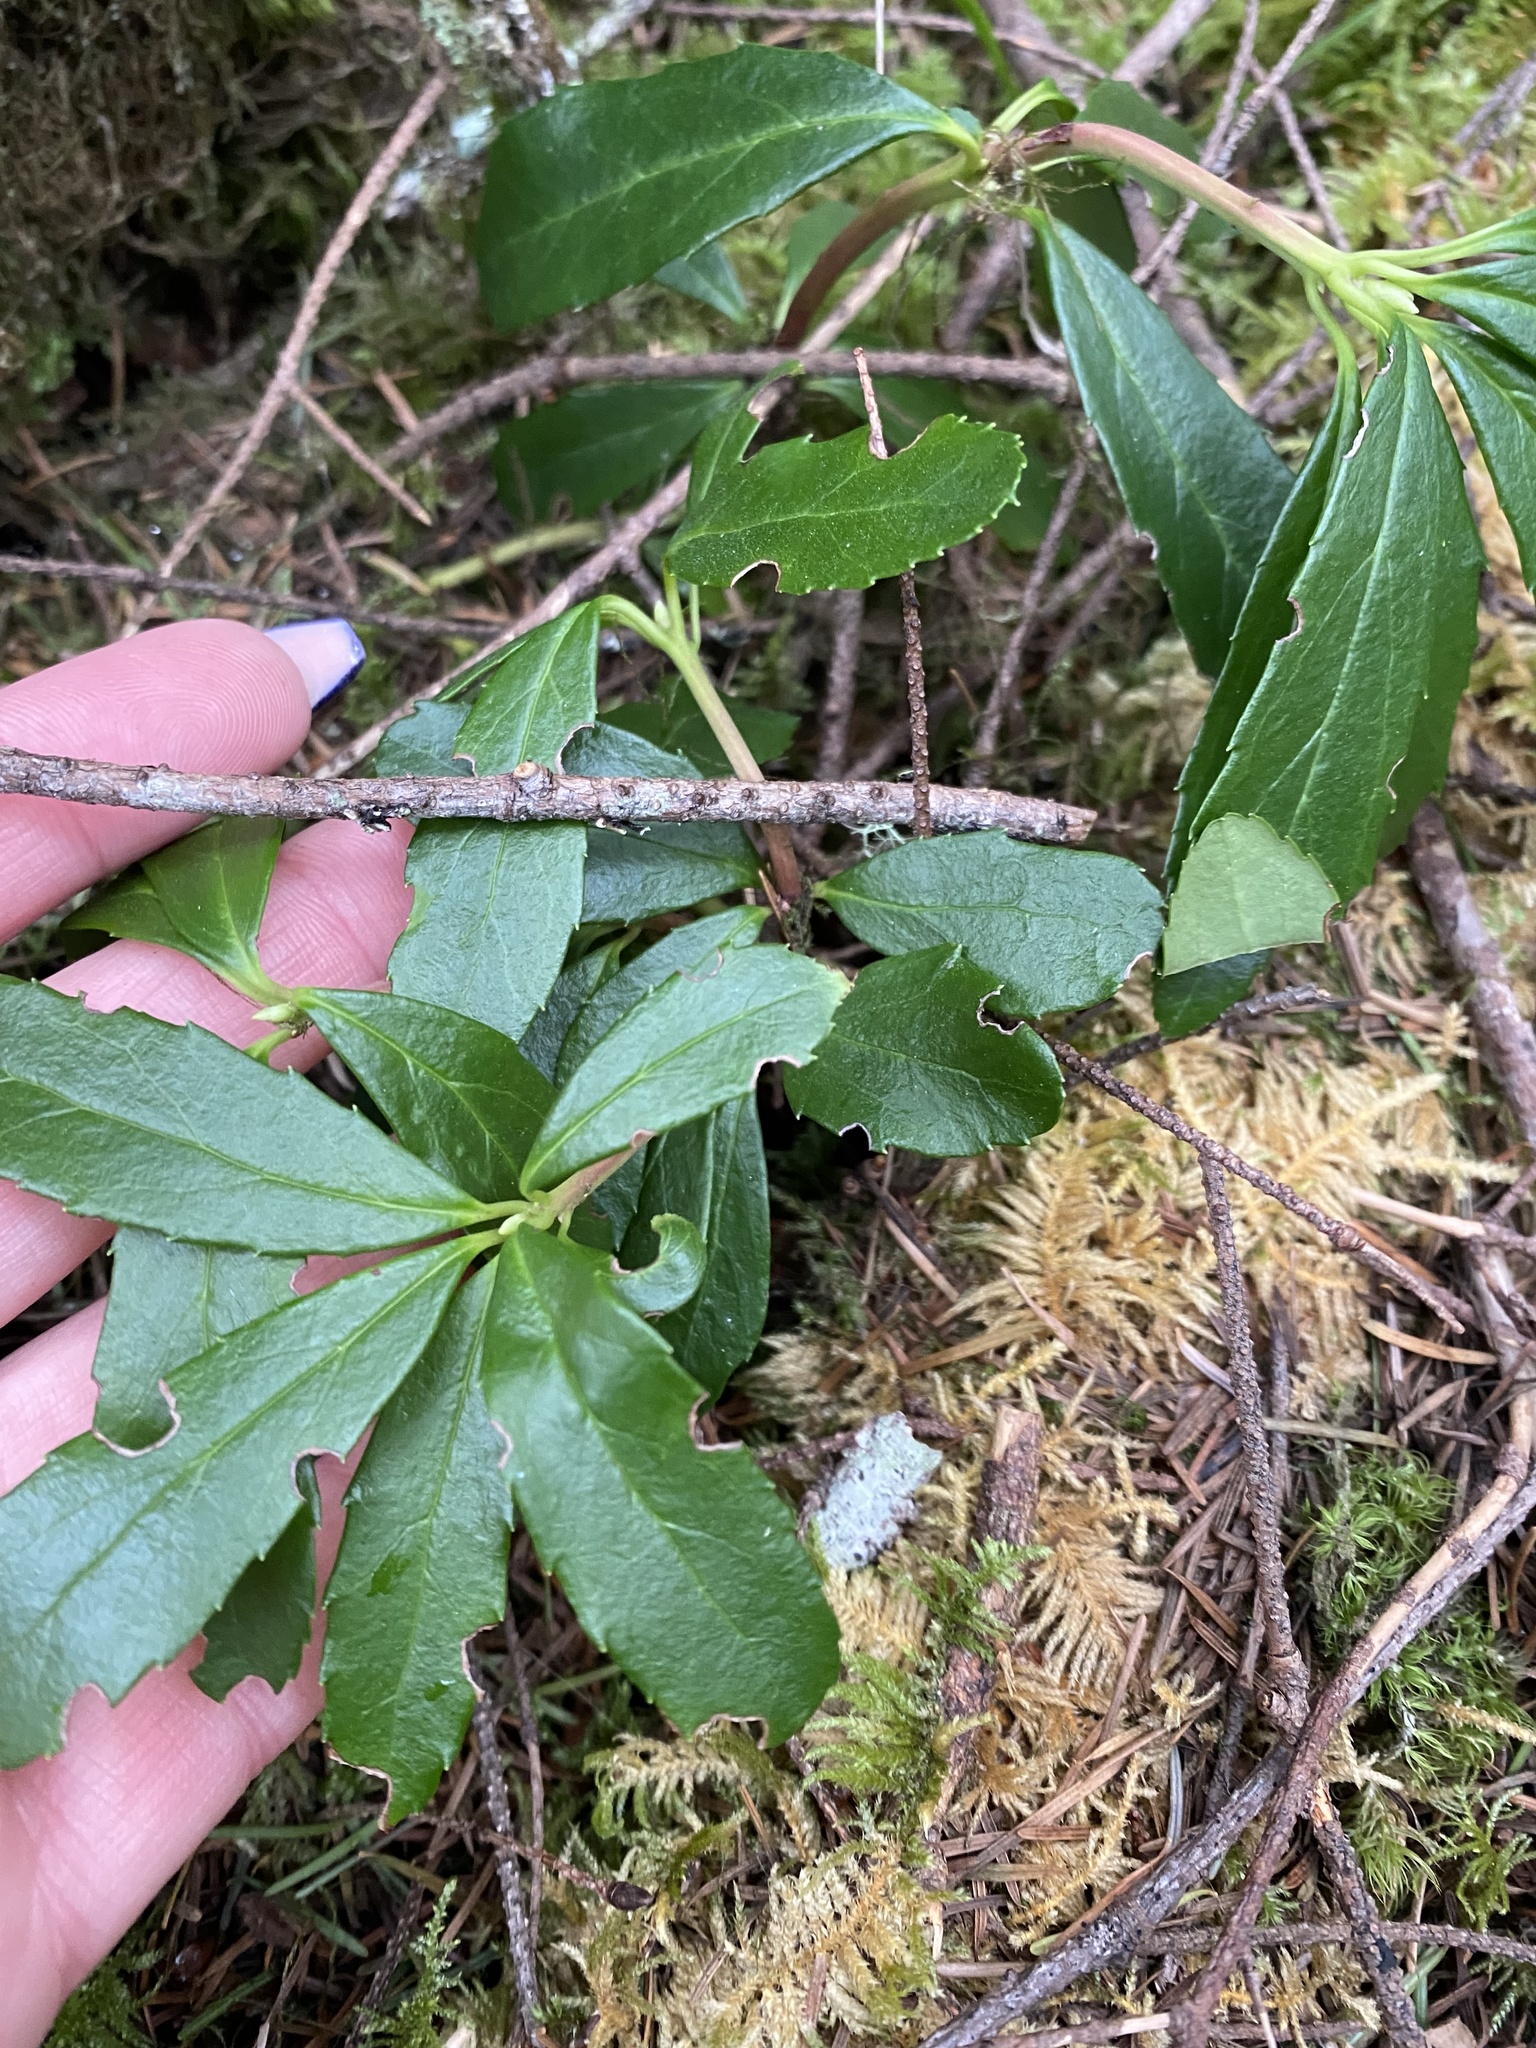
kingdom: Plantae
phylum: Tracheophyta
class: Magnoliopsida
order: Ericales
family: Ericaceae
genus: Chimaphila
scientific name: Chimaphila umbellata
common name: Pipsissewa
